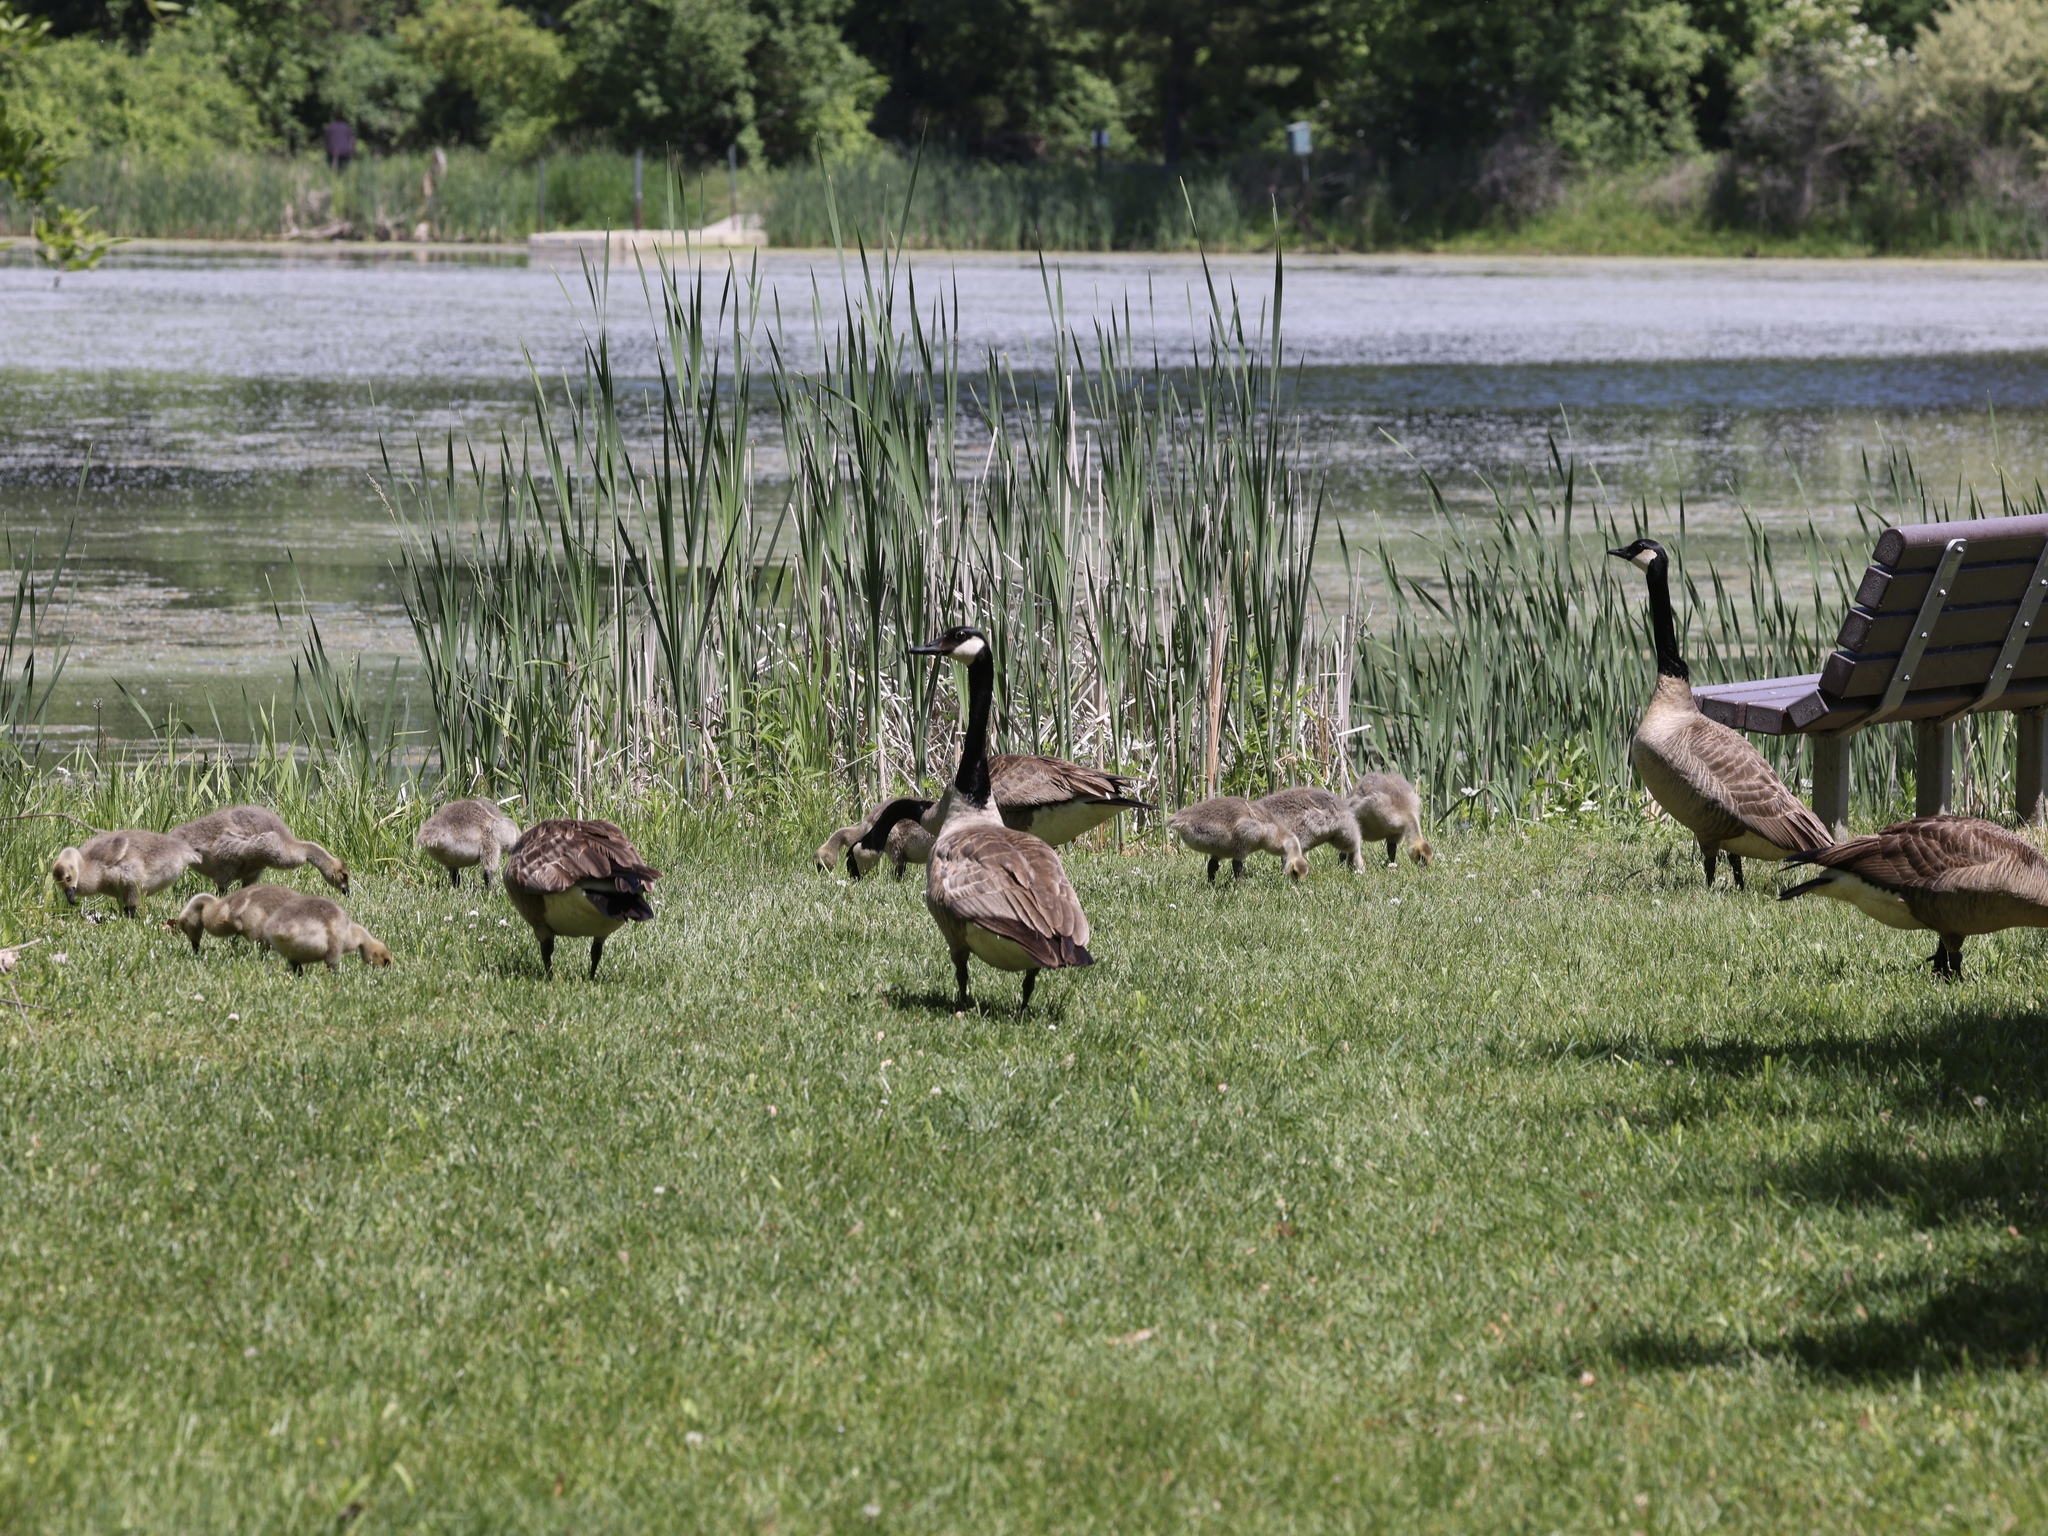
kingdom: Animalia
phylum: Chordata
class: Aves
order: Anseriformes
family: Anatidae
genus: Branta
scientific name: Branta canadensis
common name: Canada goose
